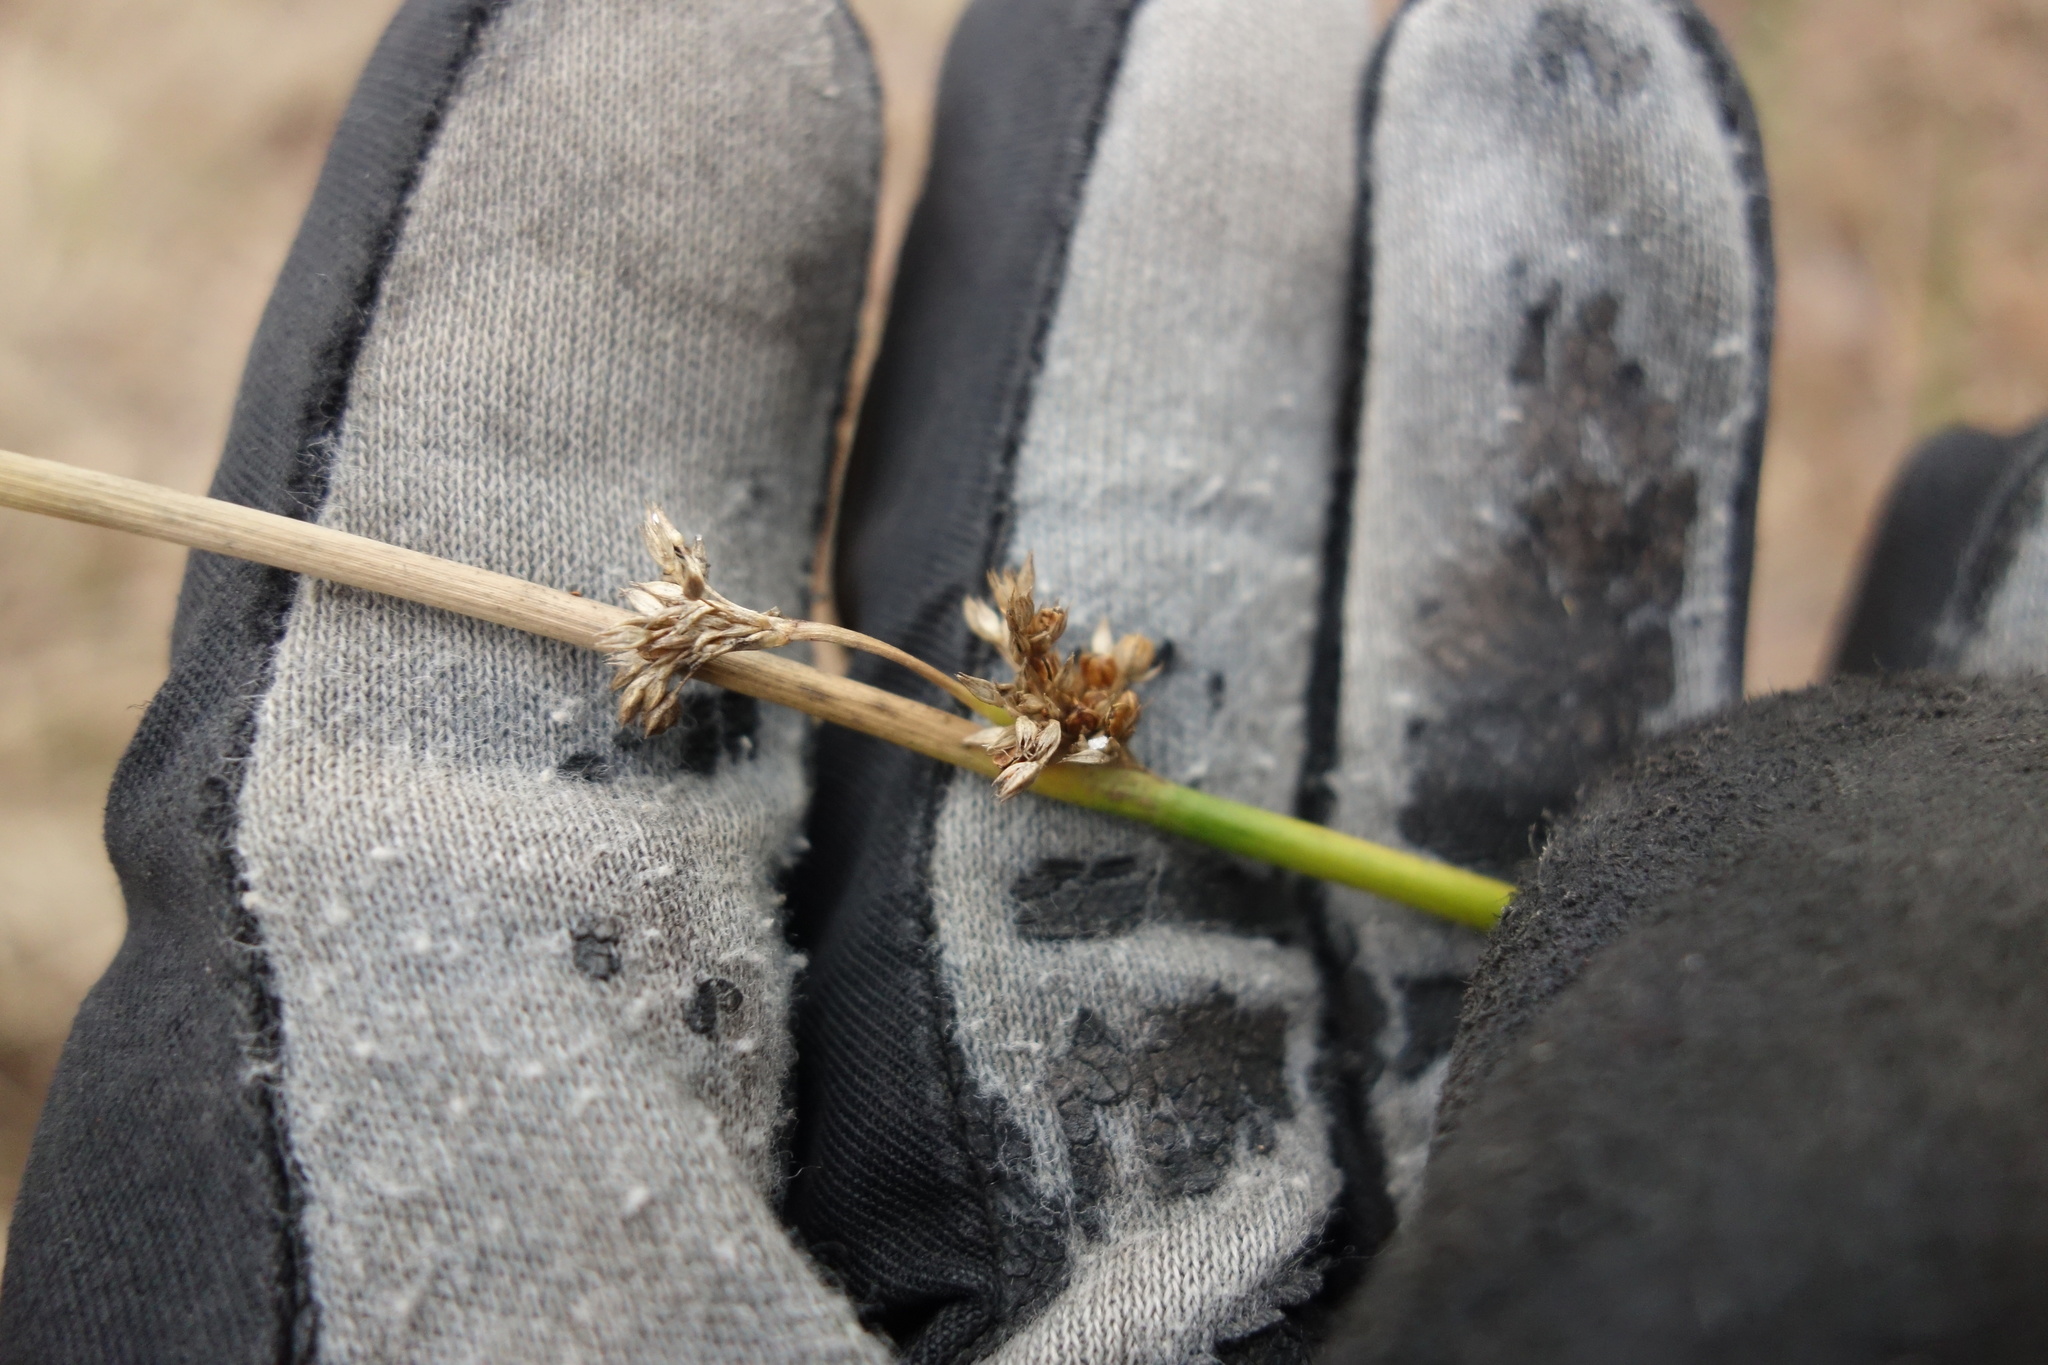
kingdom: Plantae
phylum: Tracheophyta
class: Liliopsida
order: Poales
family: Juncaceae
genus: Juncus
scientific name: Juncus effusus
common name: Soft rush
